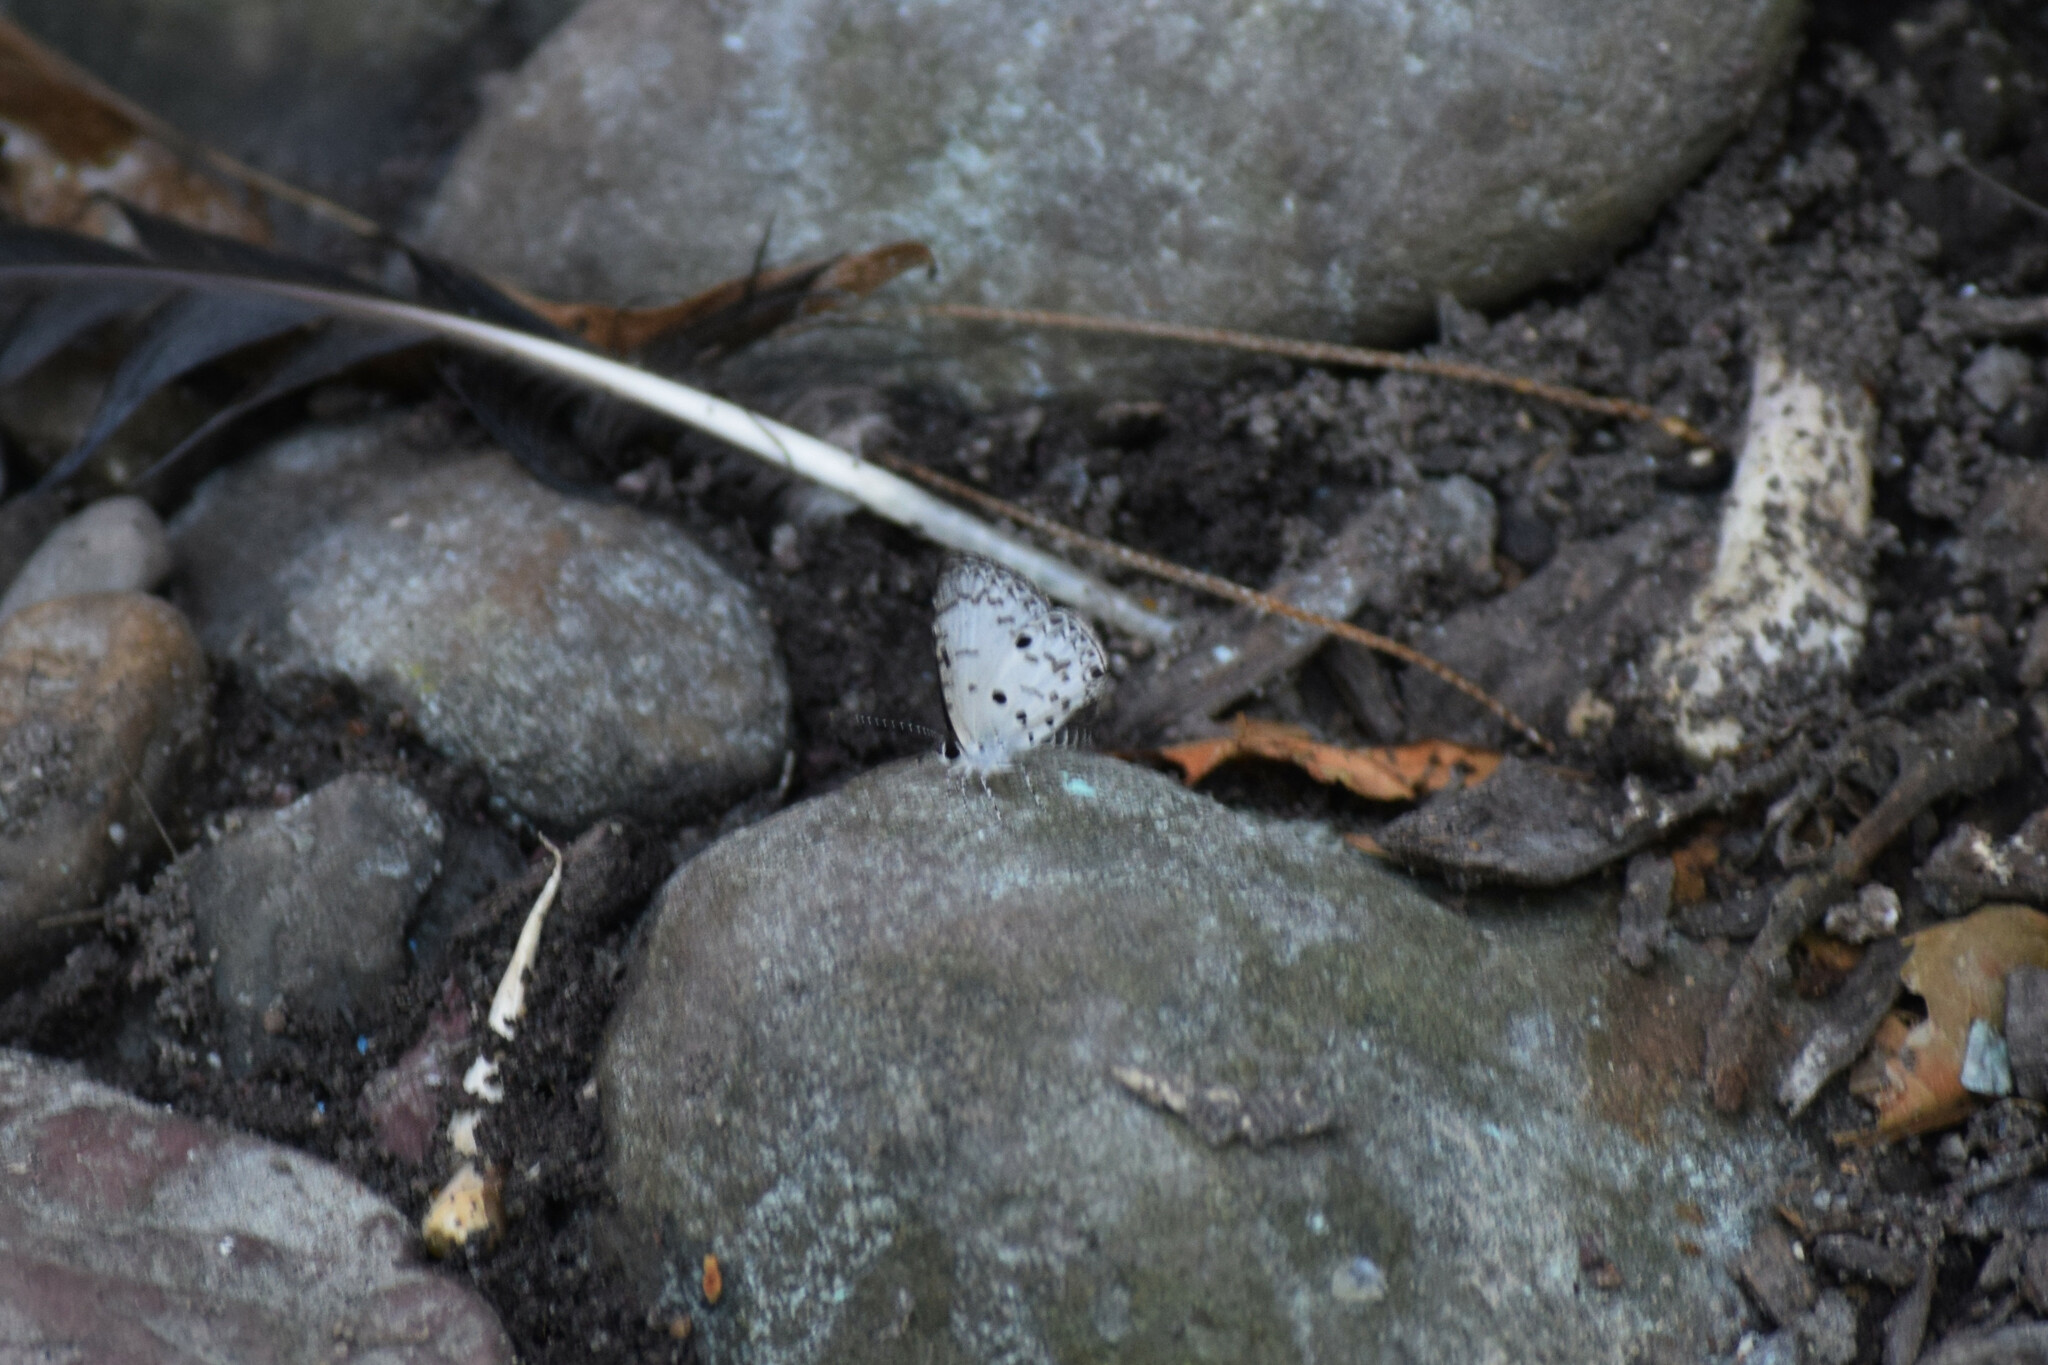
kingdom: Animalia
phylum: Arthropoda
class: Insecta
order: Lepidoptera
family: Lycaenidae
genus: Megisba
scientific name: Megisba malaya
